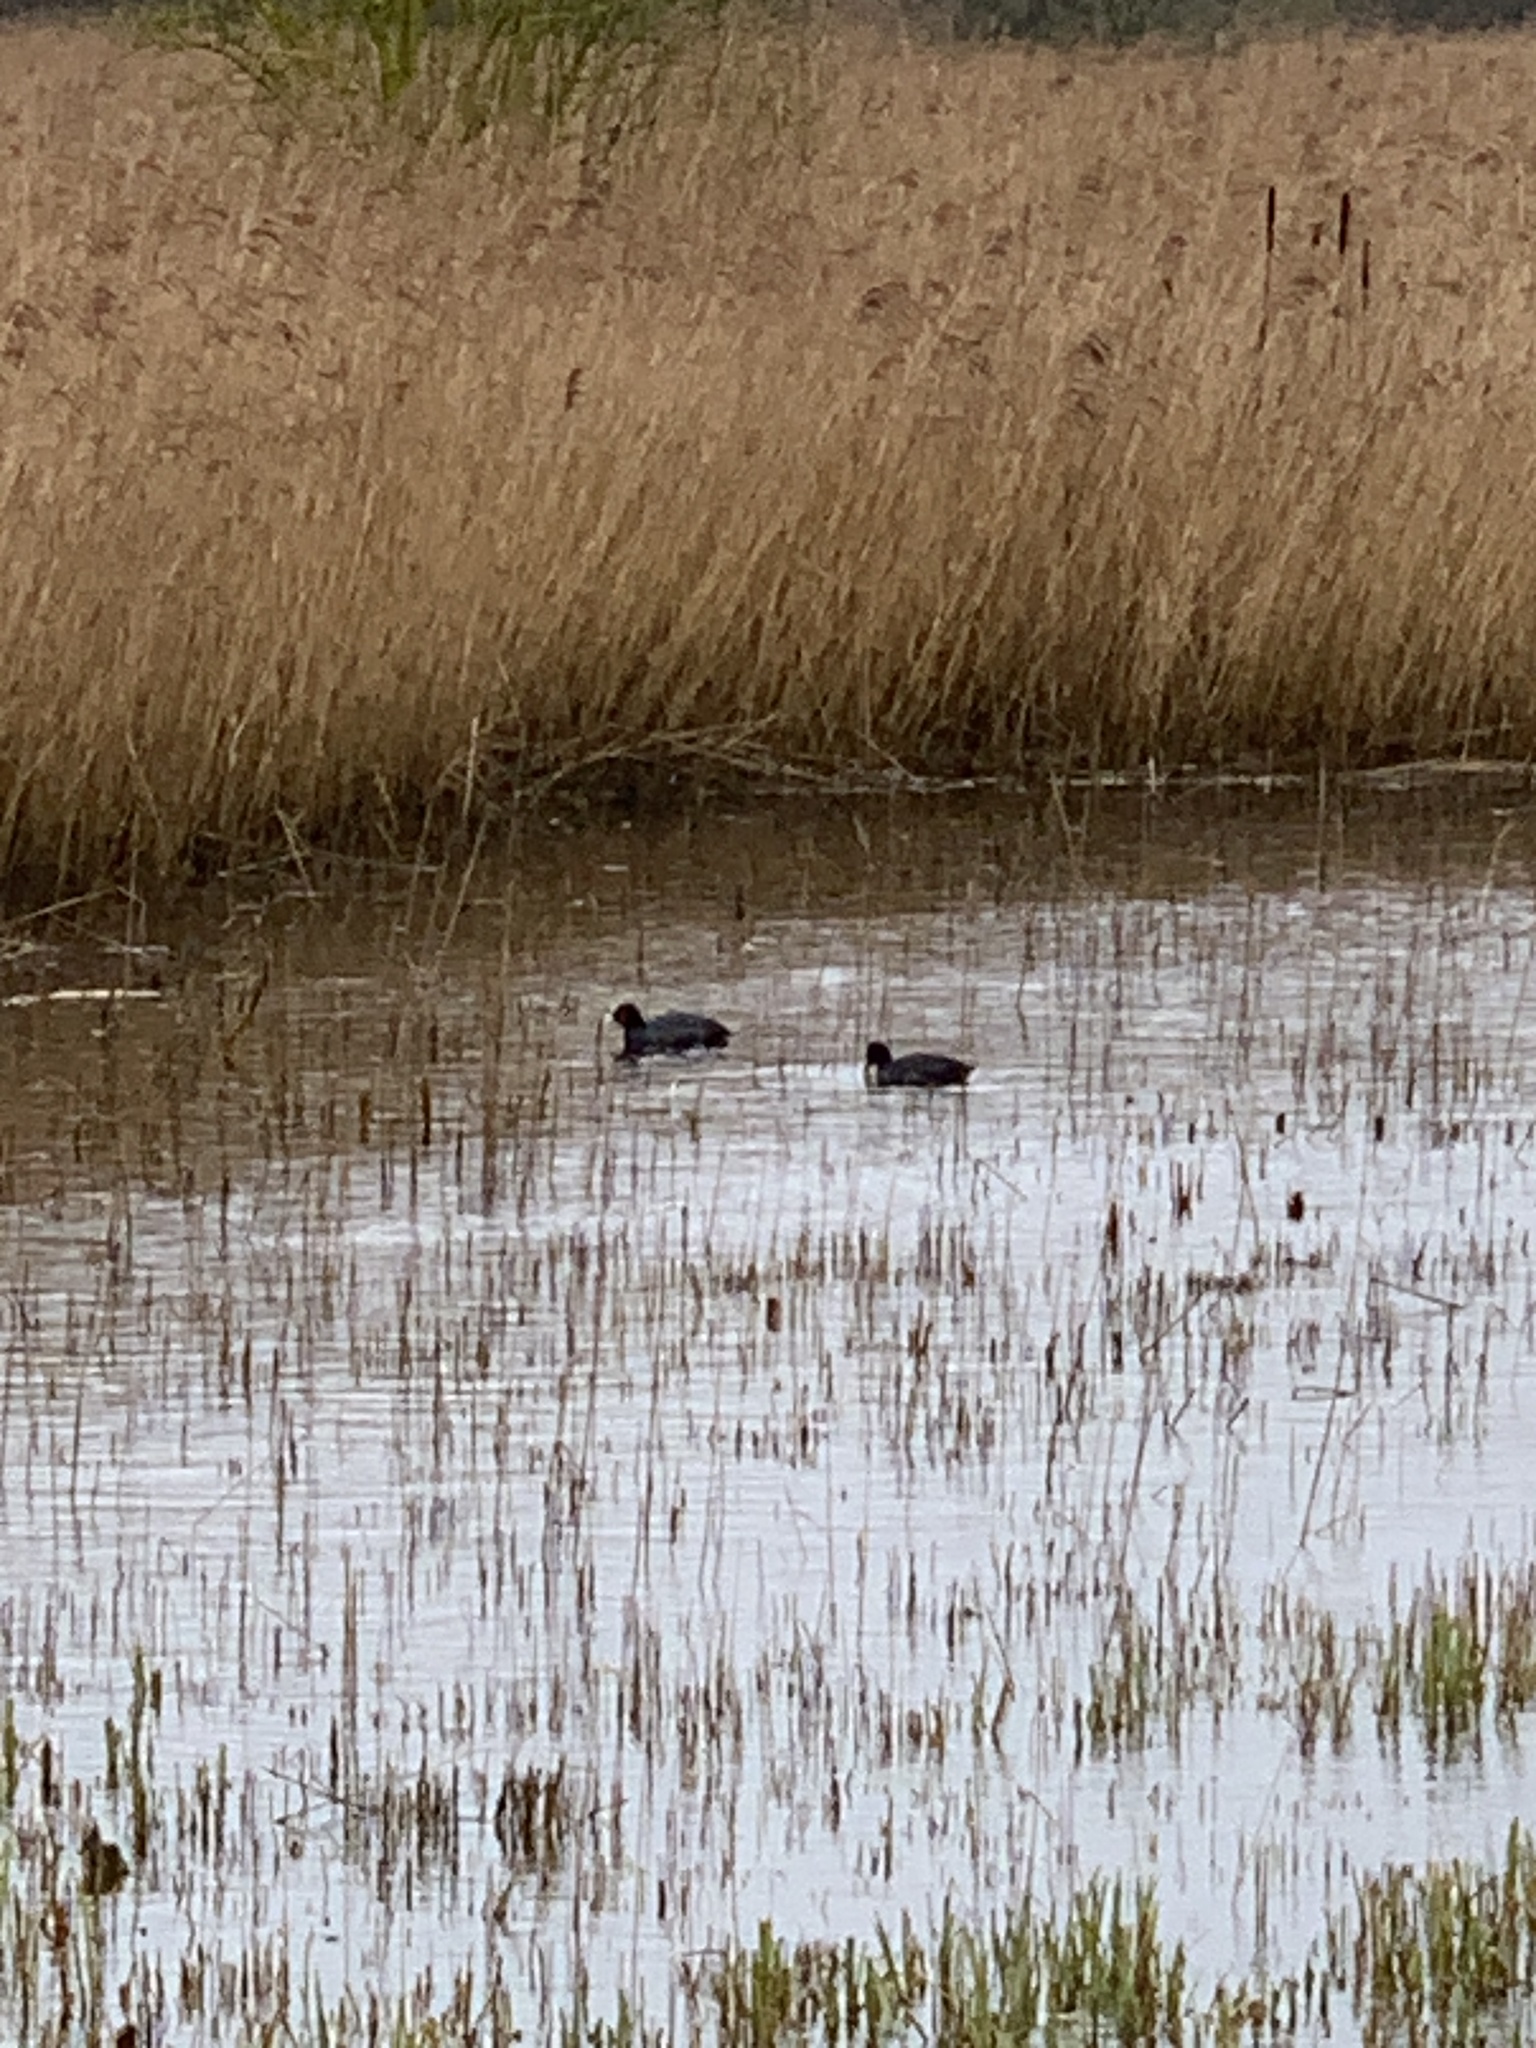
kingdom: Animalia
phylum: Chordata
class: Aves
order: Gruiformes
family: Rallidae
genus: Fulica
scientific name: Fulica atra
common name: Eurasian coot
